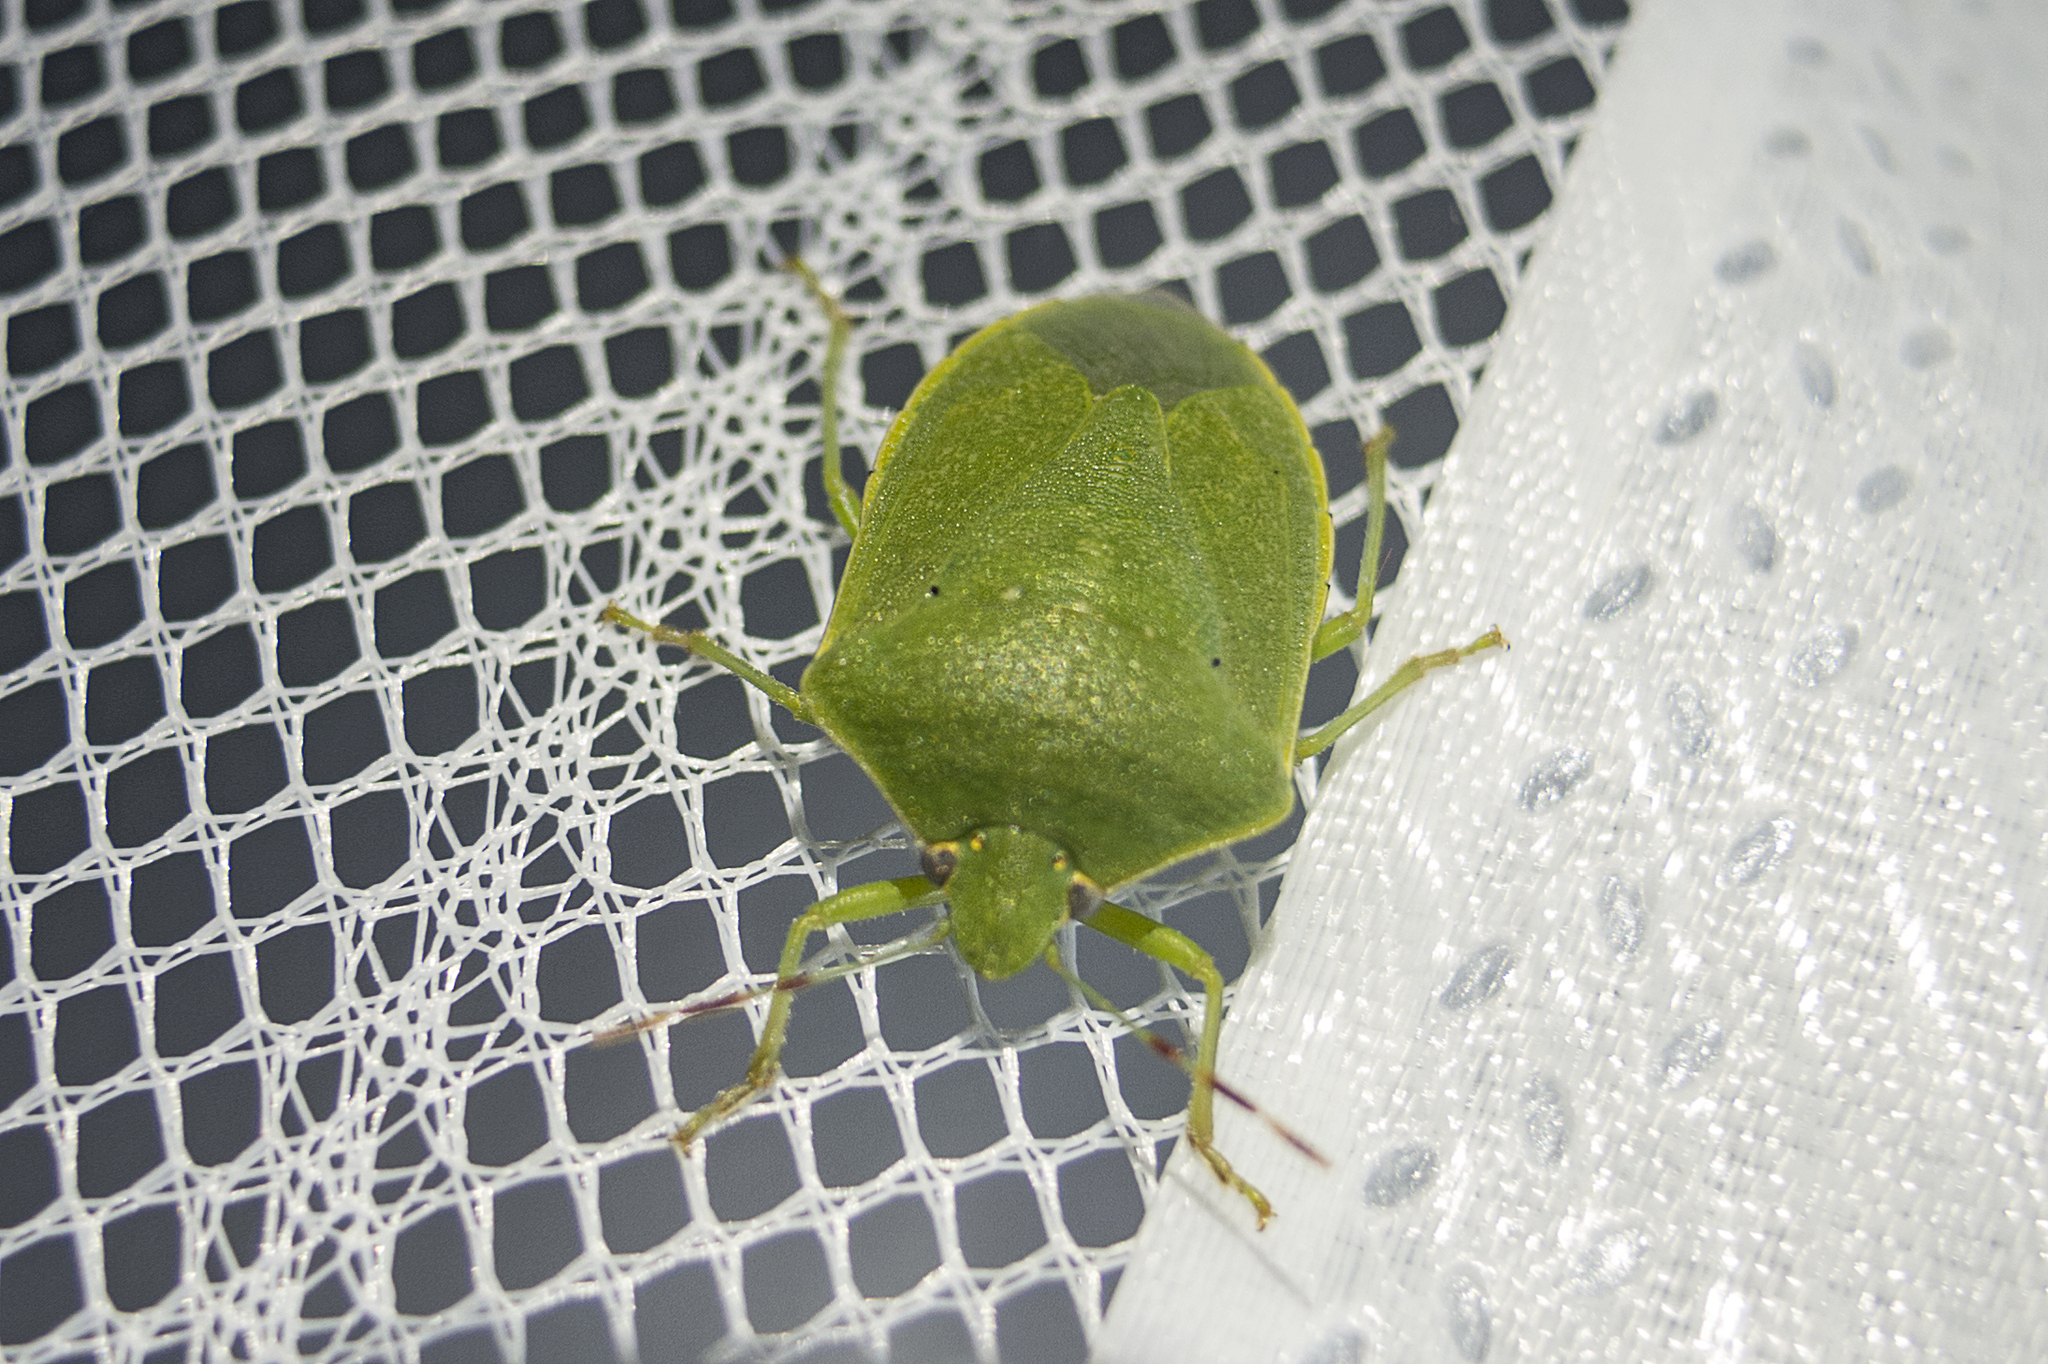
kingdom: Animalia
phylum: Arthropoda
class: Insecta
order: Hemiptera
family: Pentatomidae
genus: Nezara
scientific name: Nezara viridula
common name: Southern green stink bug
